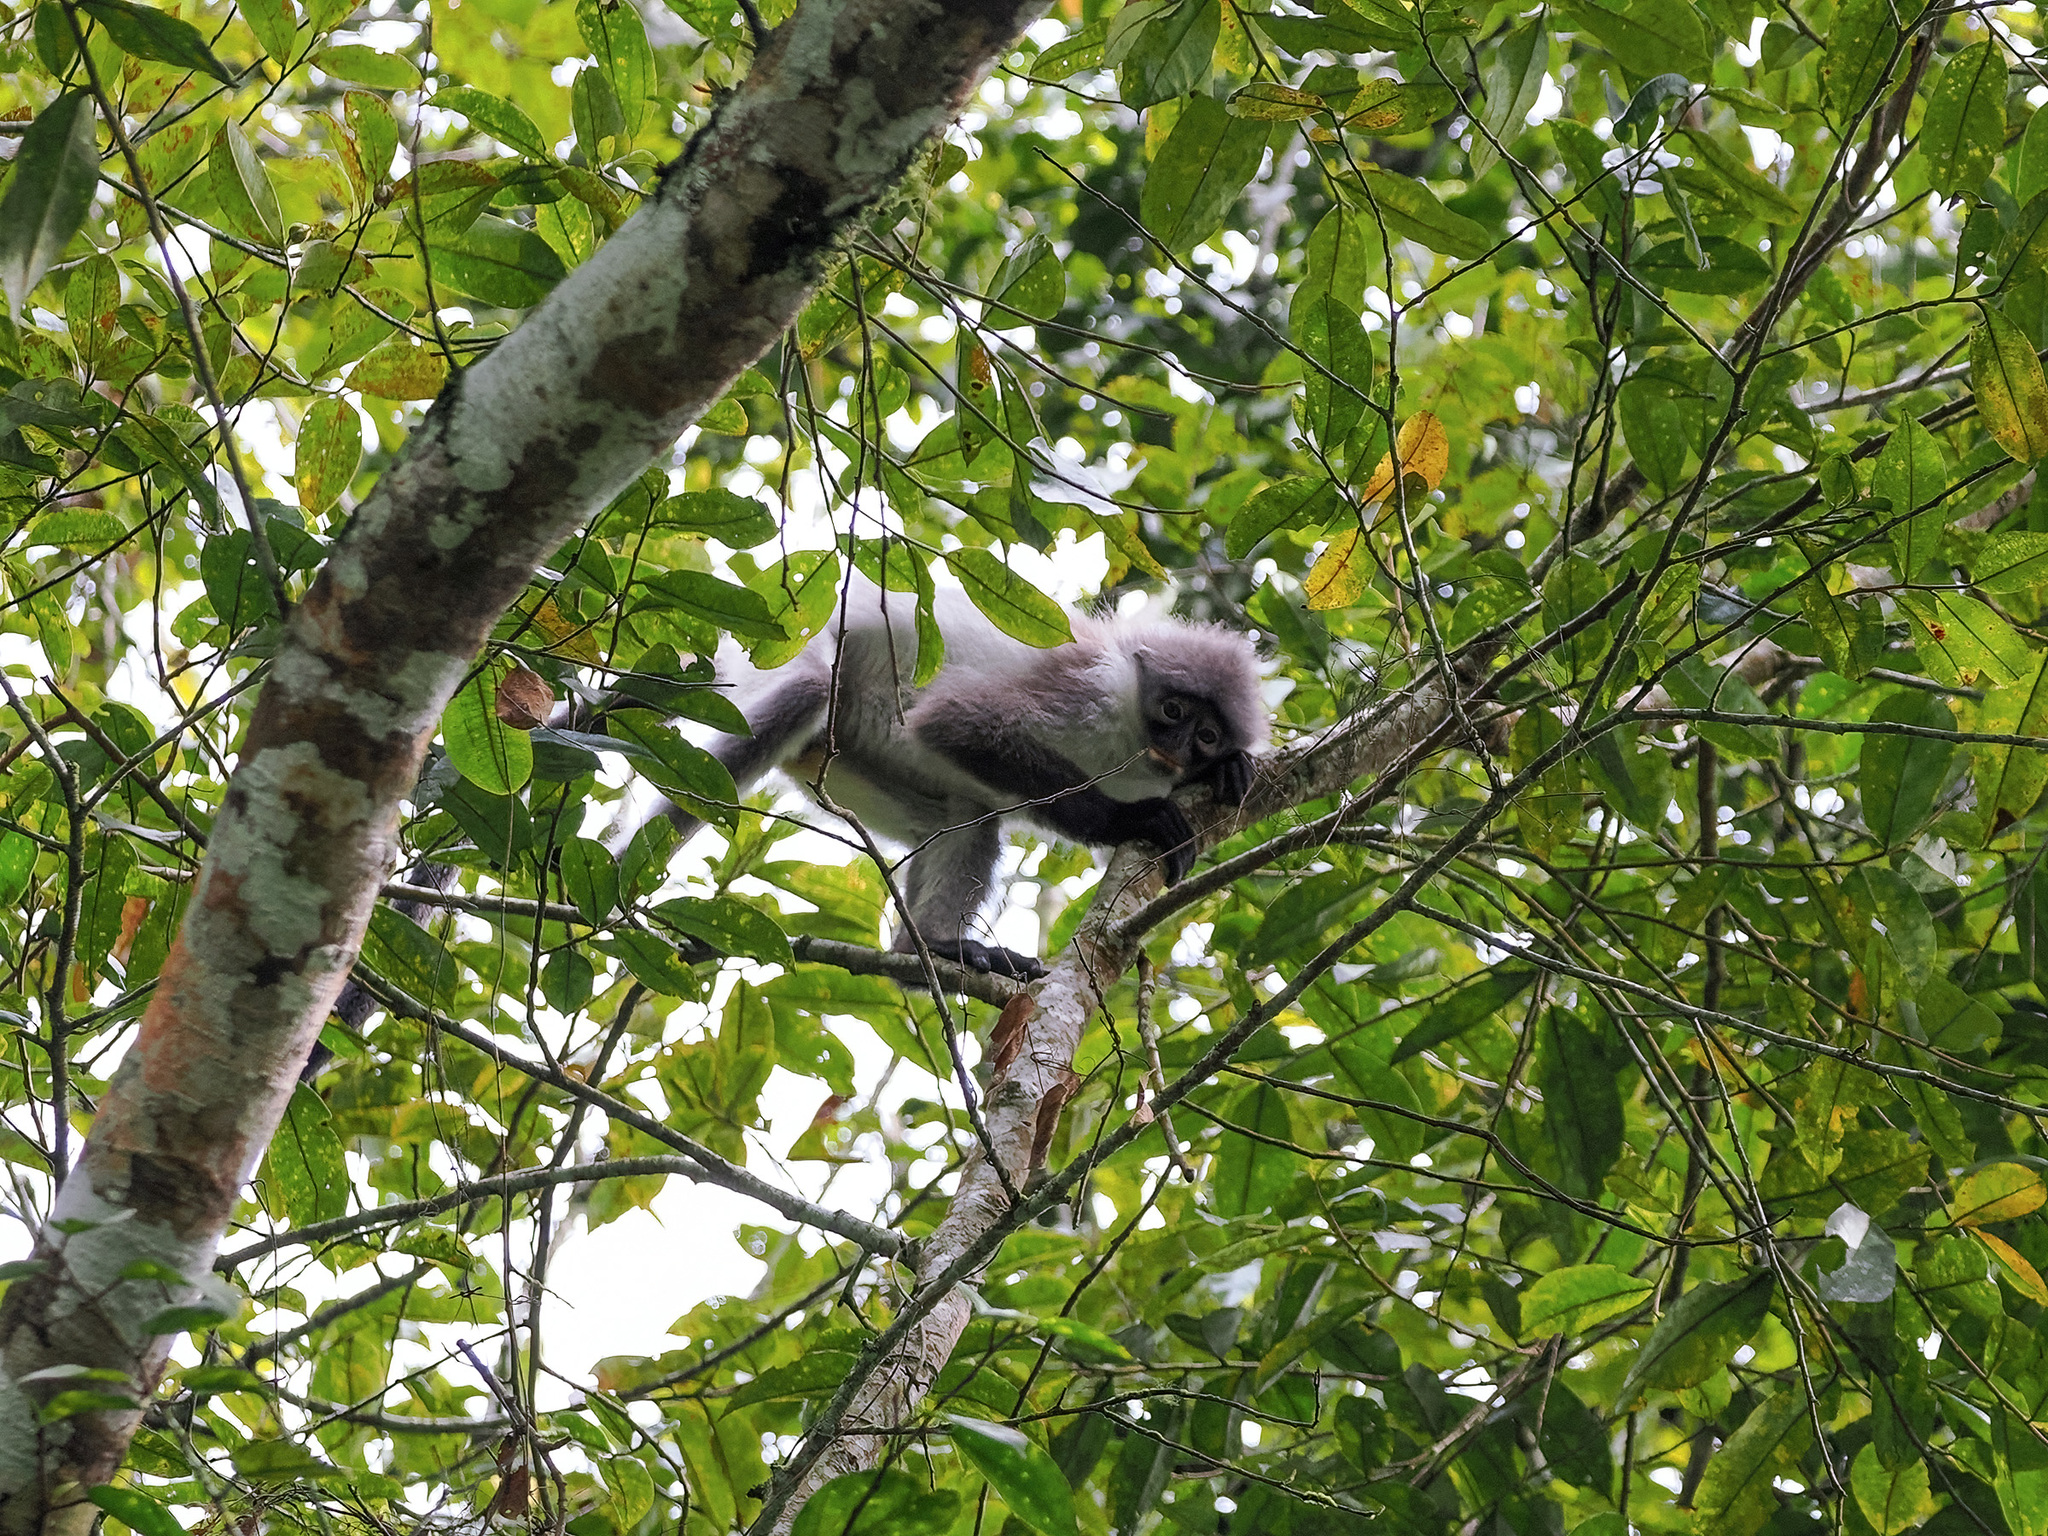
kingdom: Animalia
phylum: Chordata
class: Mammalia
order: Primates
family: Cercopithecidae
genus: Presbytis
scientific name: Presbytis siamensis
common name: White-thighed surili
